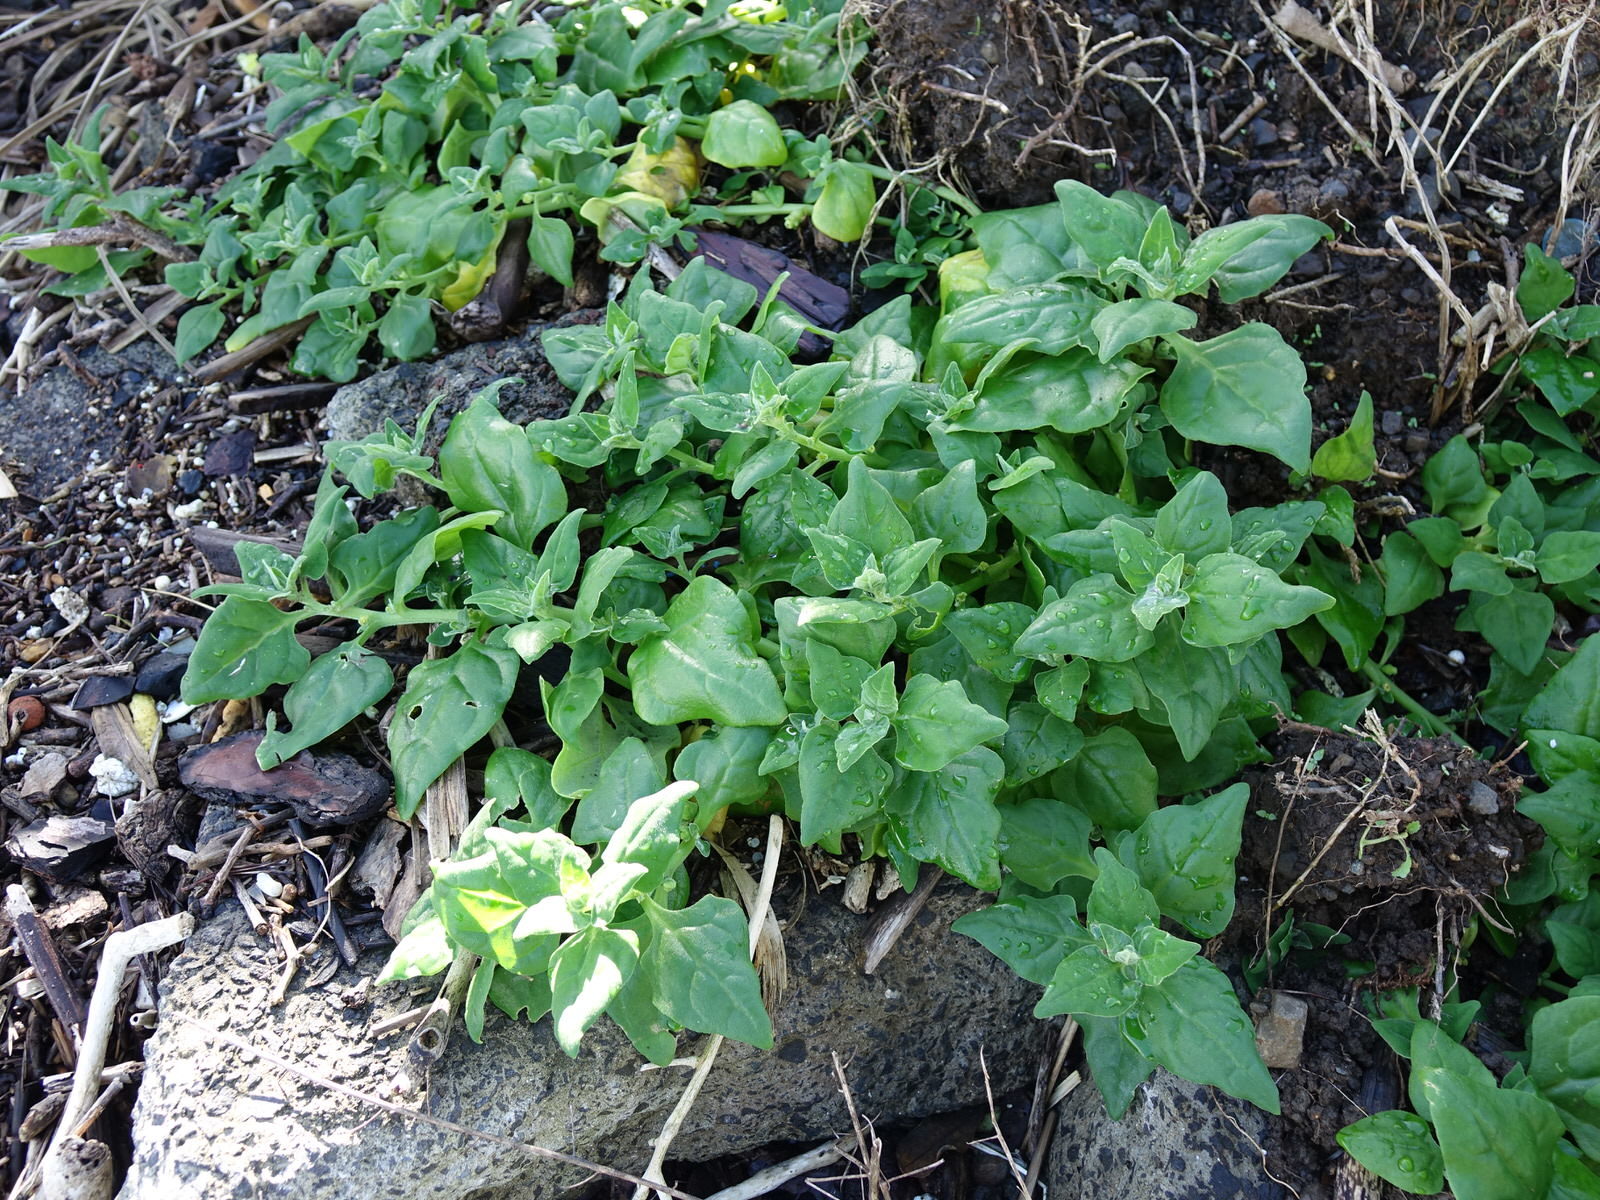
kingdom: Plantae
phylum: Tracheophyta
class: Magnoliopsida
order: Caryophyllales
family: Aizoaceae
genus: Tetragonia
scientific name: Tetragonia tetragonoides
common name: New zealand-spinach
